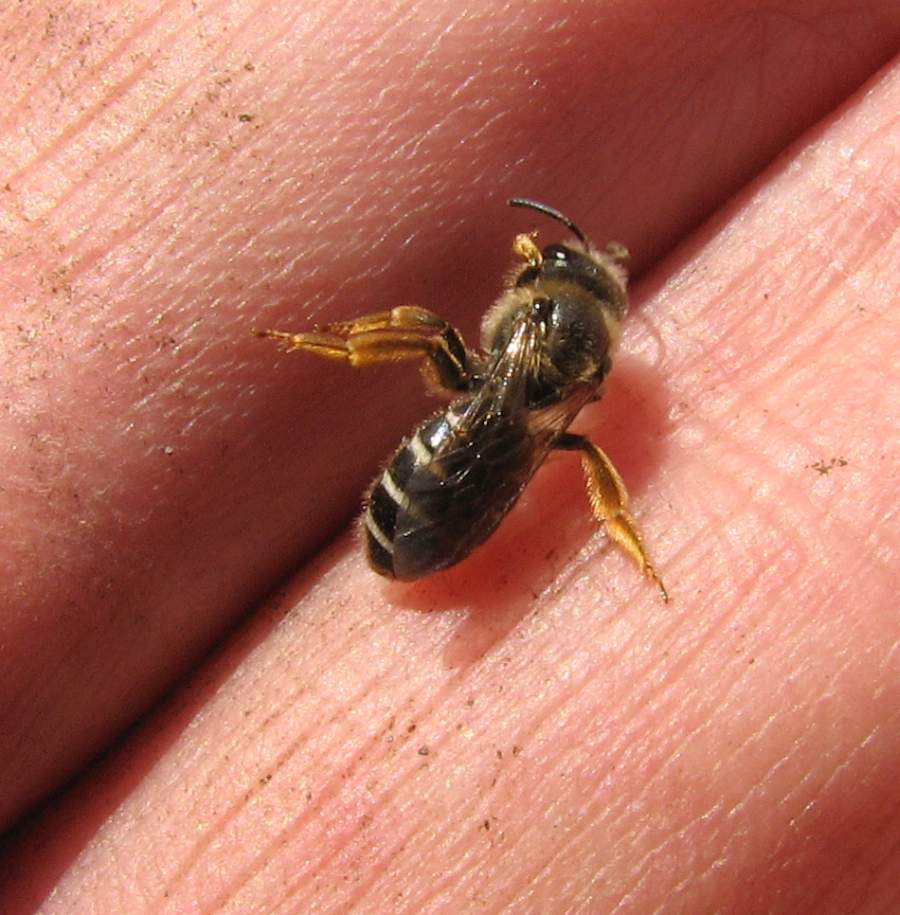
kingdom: Animalia
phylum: Arthropoda
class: Insecta
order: Hymenoptera
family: Halictidae
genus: Halictus
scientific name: Halictus rubicundus
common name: Orange-legged furrow bee
